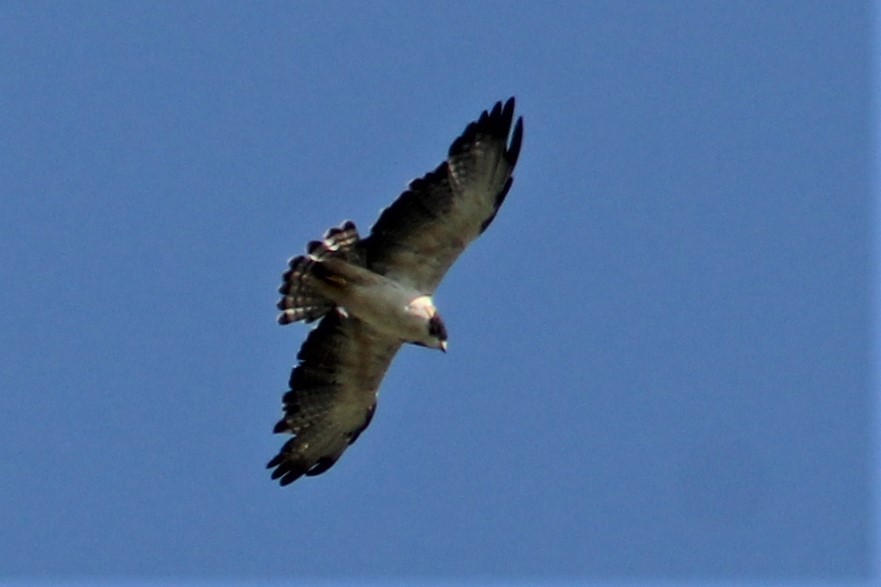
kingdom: Animalia
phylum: Chordata
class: Aves
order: Accipitriformes
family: Accipitridae
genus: Buteo
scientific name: Buteo brachyurus
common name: Short-tailed hawk
